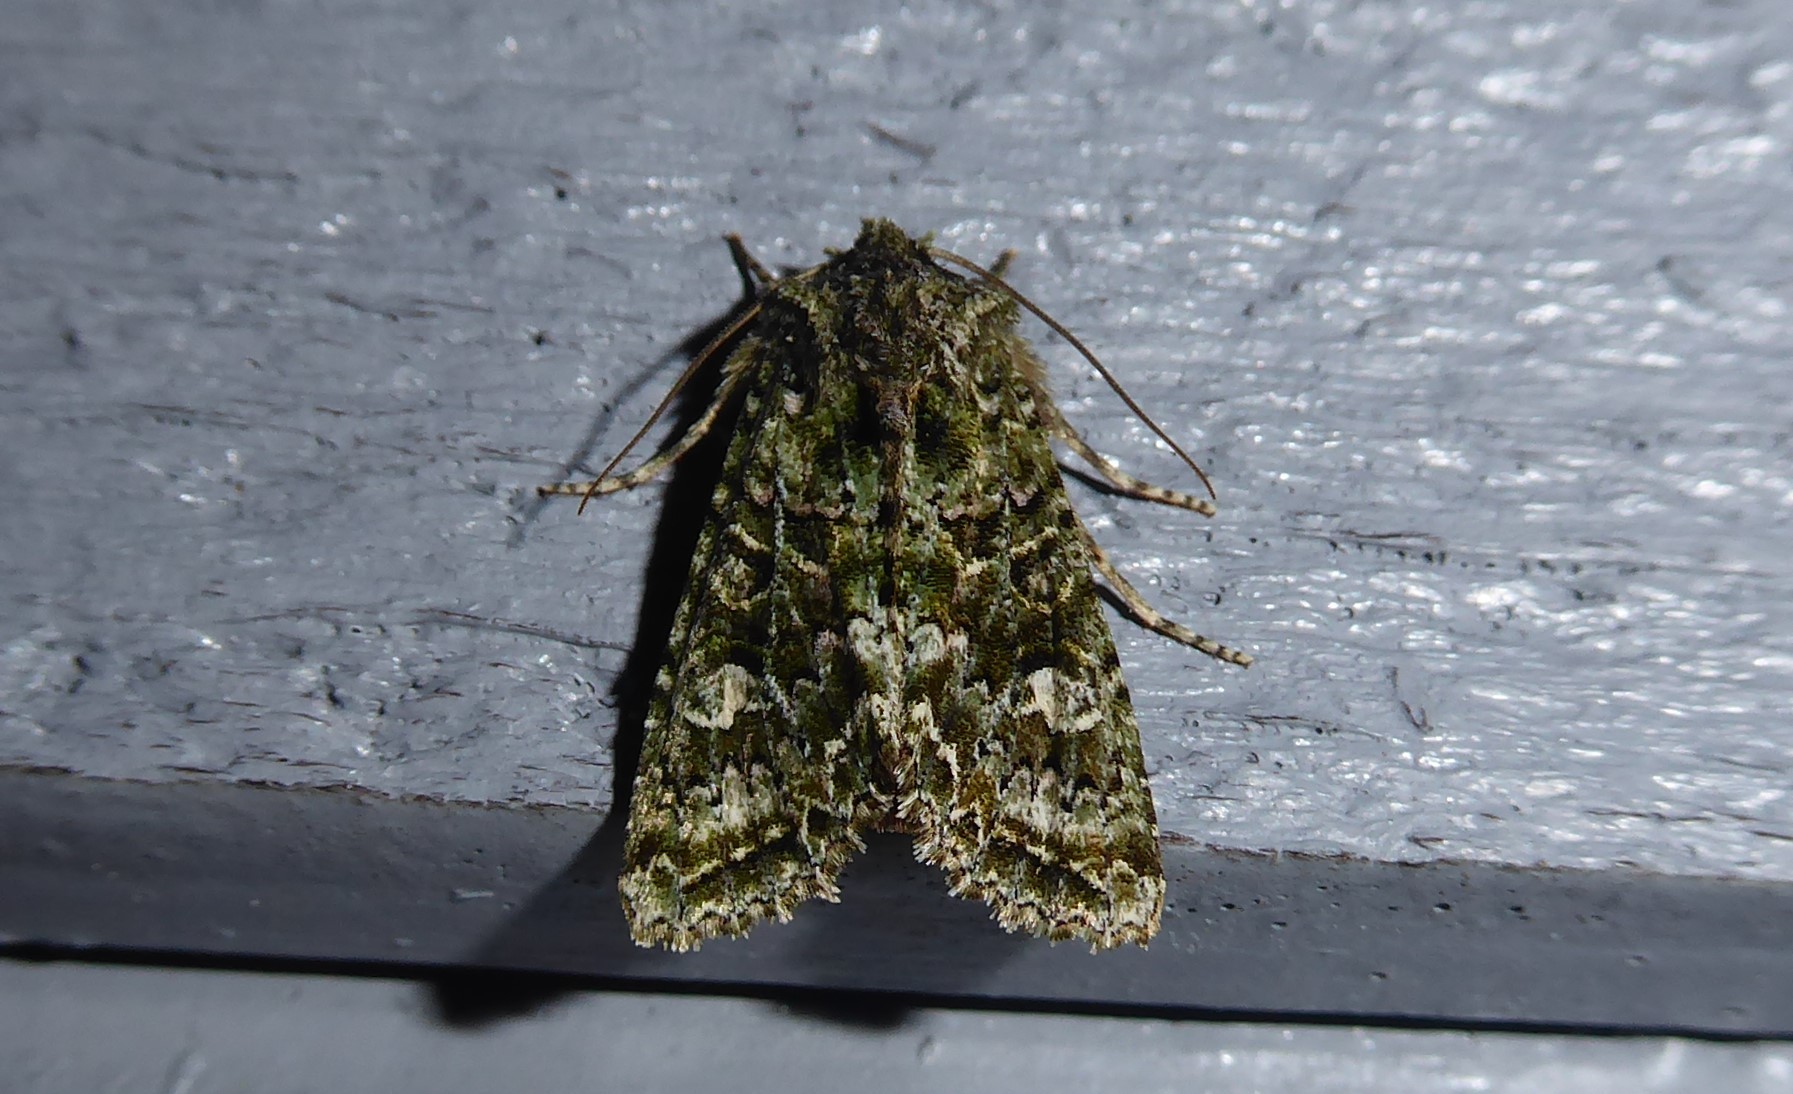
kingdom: Animalia
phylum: Arthropoda
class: Insecta
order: Lepidoptera
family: Noctuidae
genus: Ichneutica
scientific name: Ichneutica
